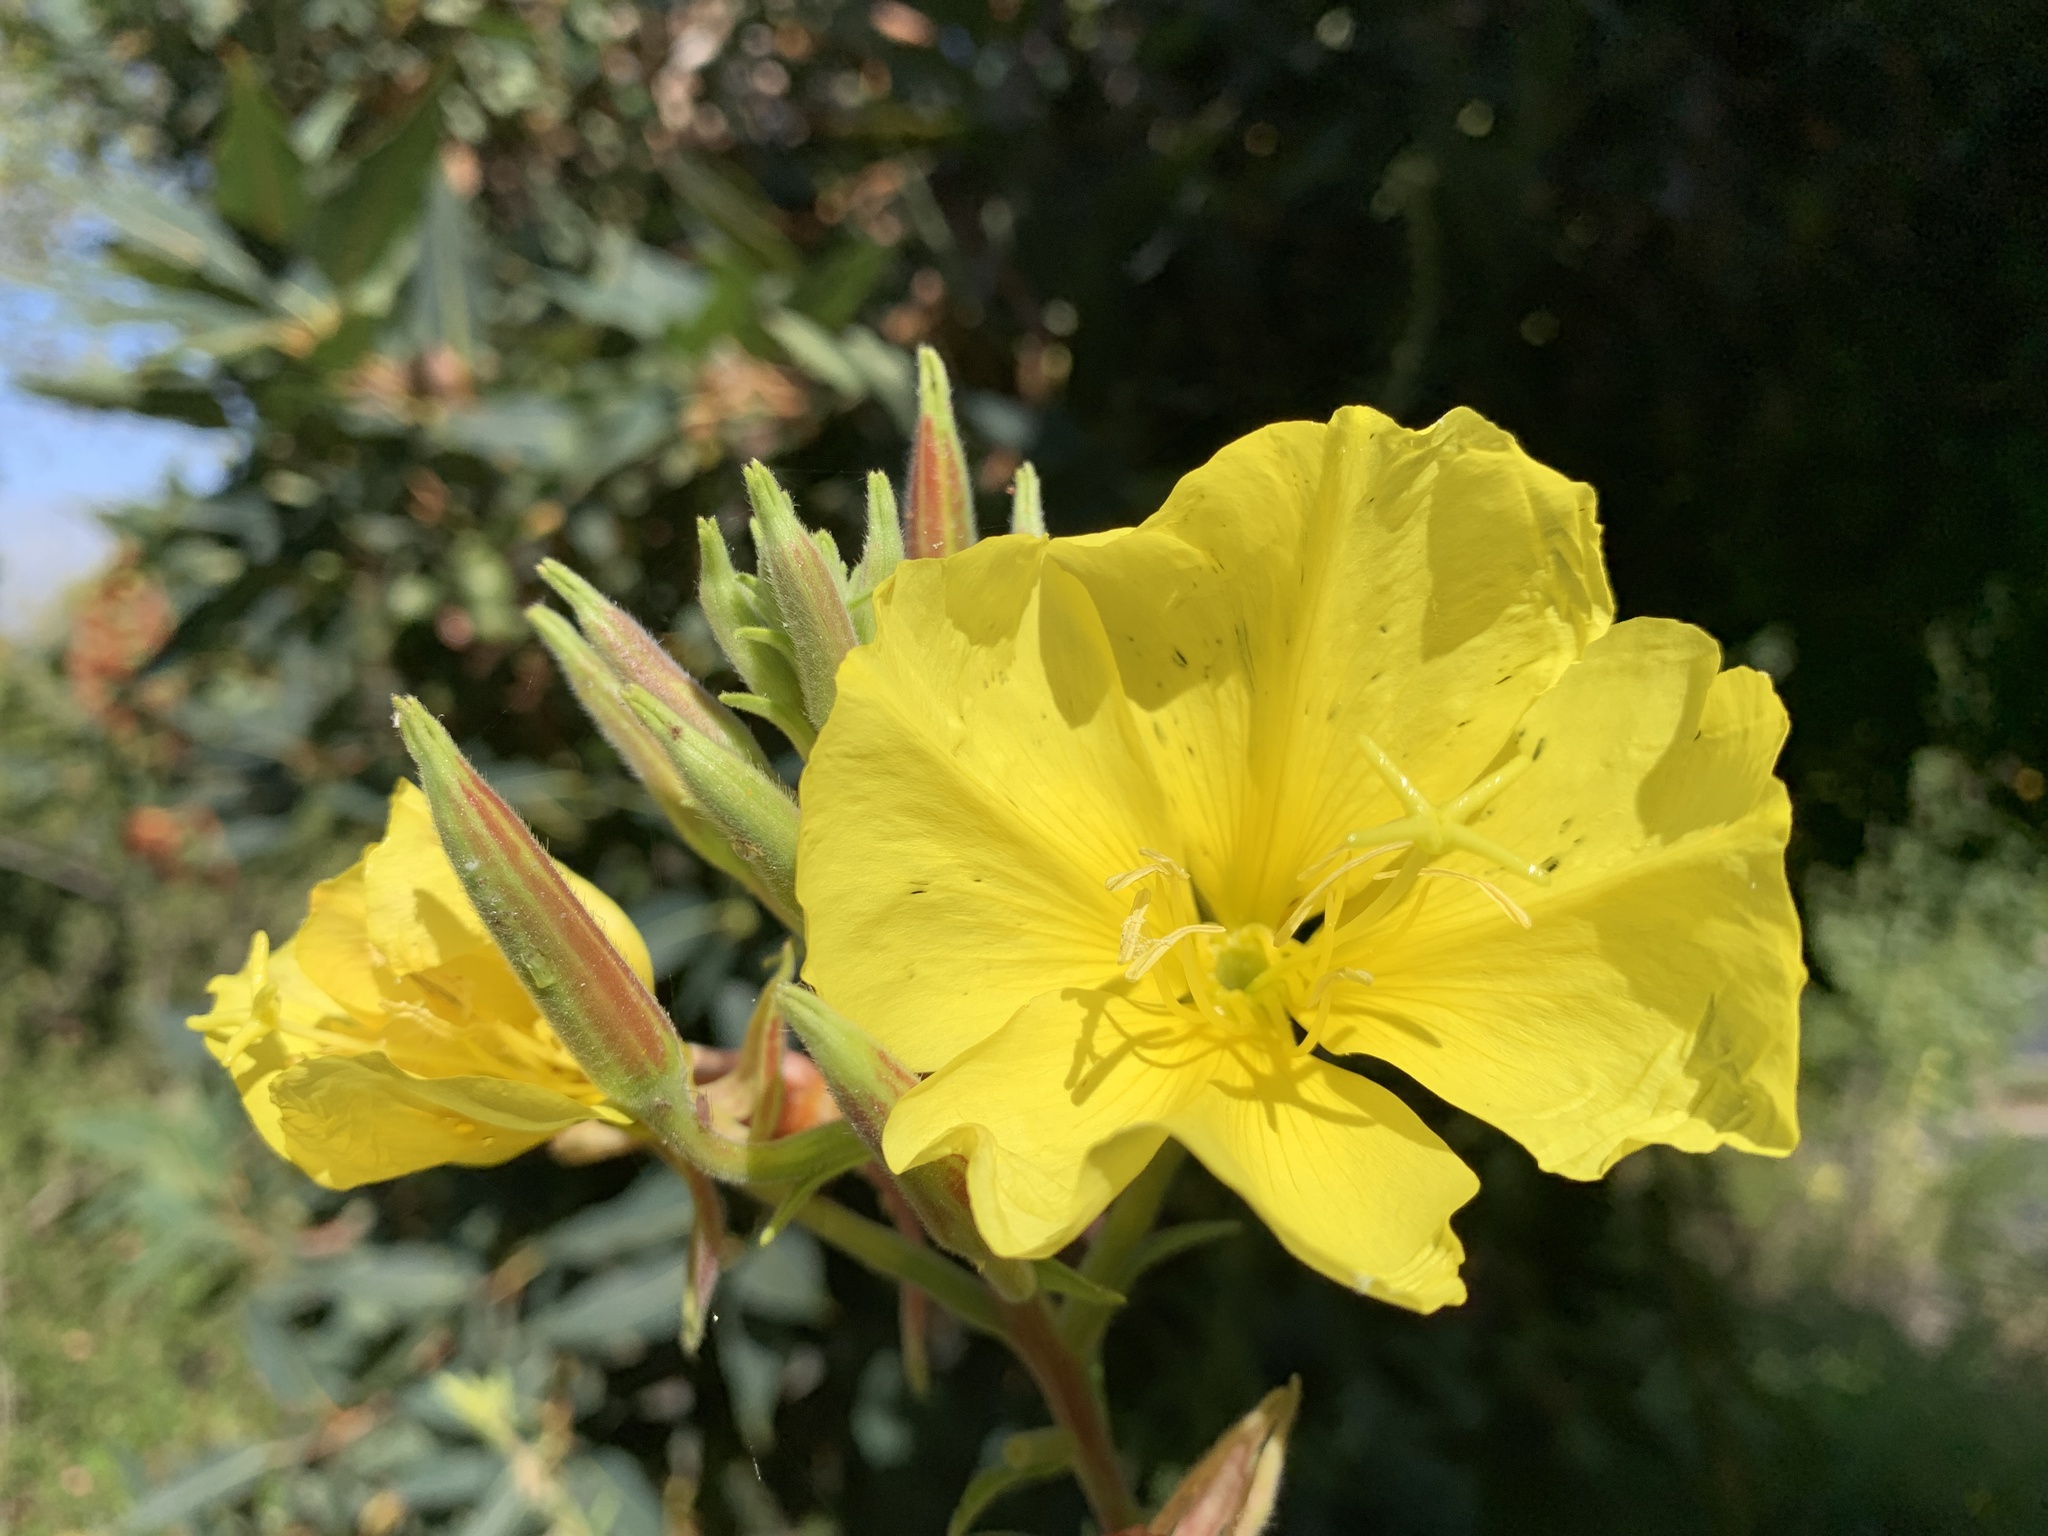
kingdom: Plantae
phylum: Tracheophyta
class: Magnoliopsida
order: Myrtales
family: Onagraceae
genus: Oenothera
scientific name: Oenothera elata
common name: Hooker's evening-primrose
